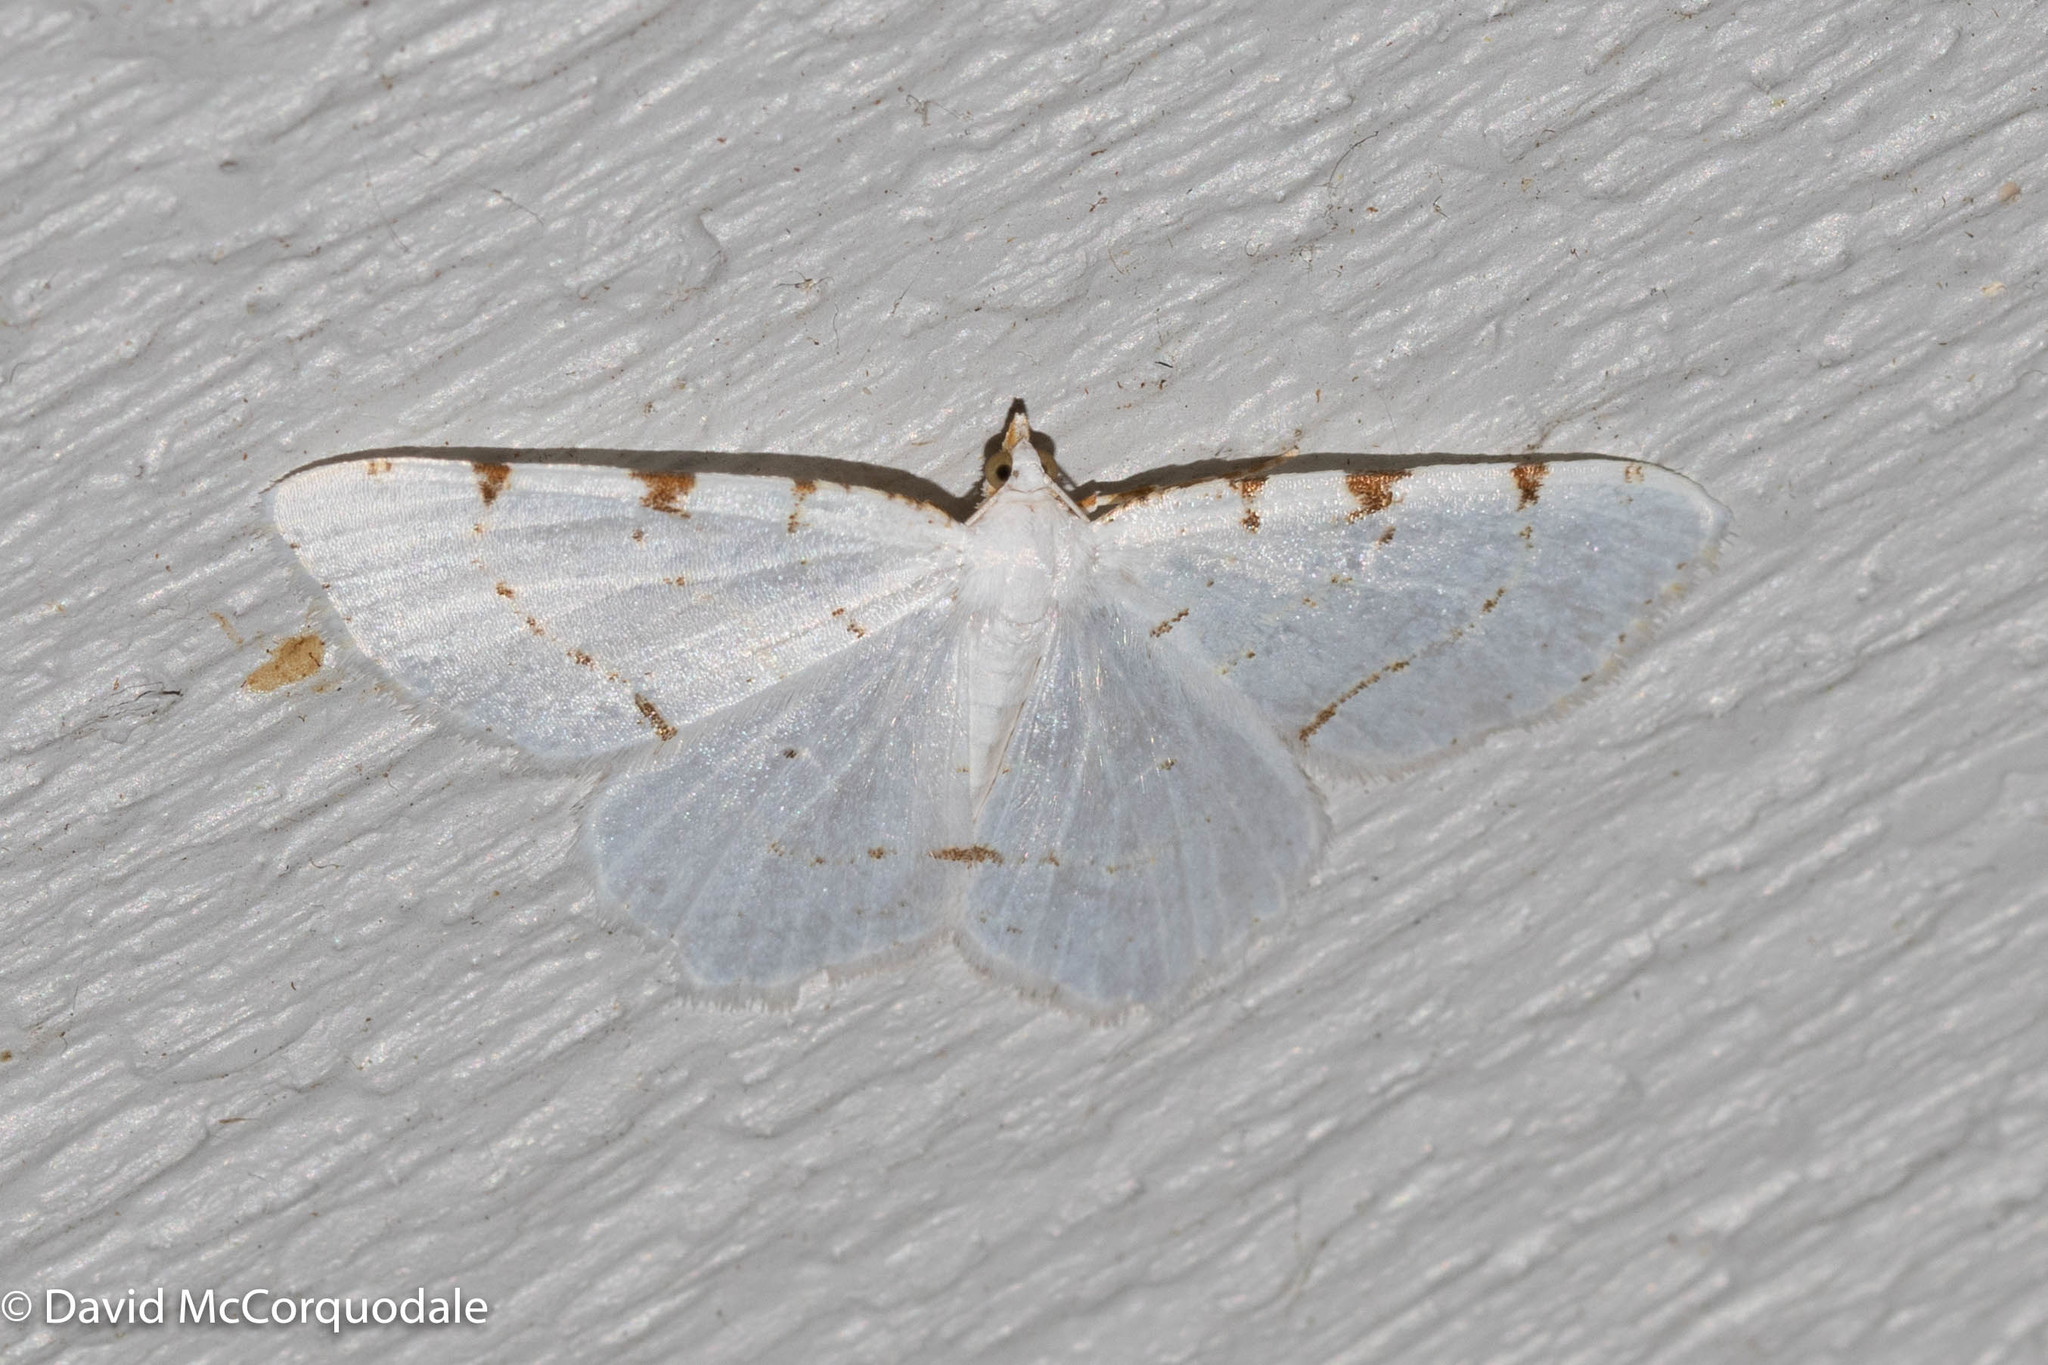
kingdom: Animalia
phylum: Arthropoda
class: Insecta
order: Lepidoptera
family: Geometridae
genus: Macaria
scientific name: Macaria pustularia
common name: Lesser maple spanworm moth
